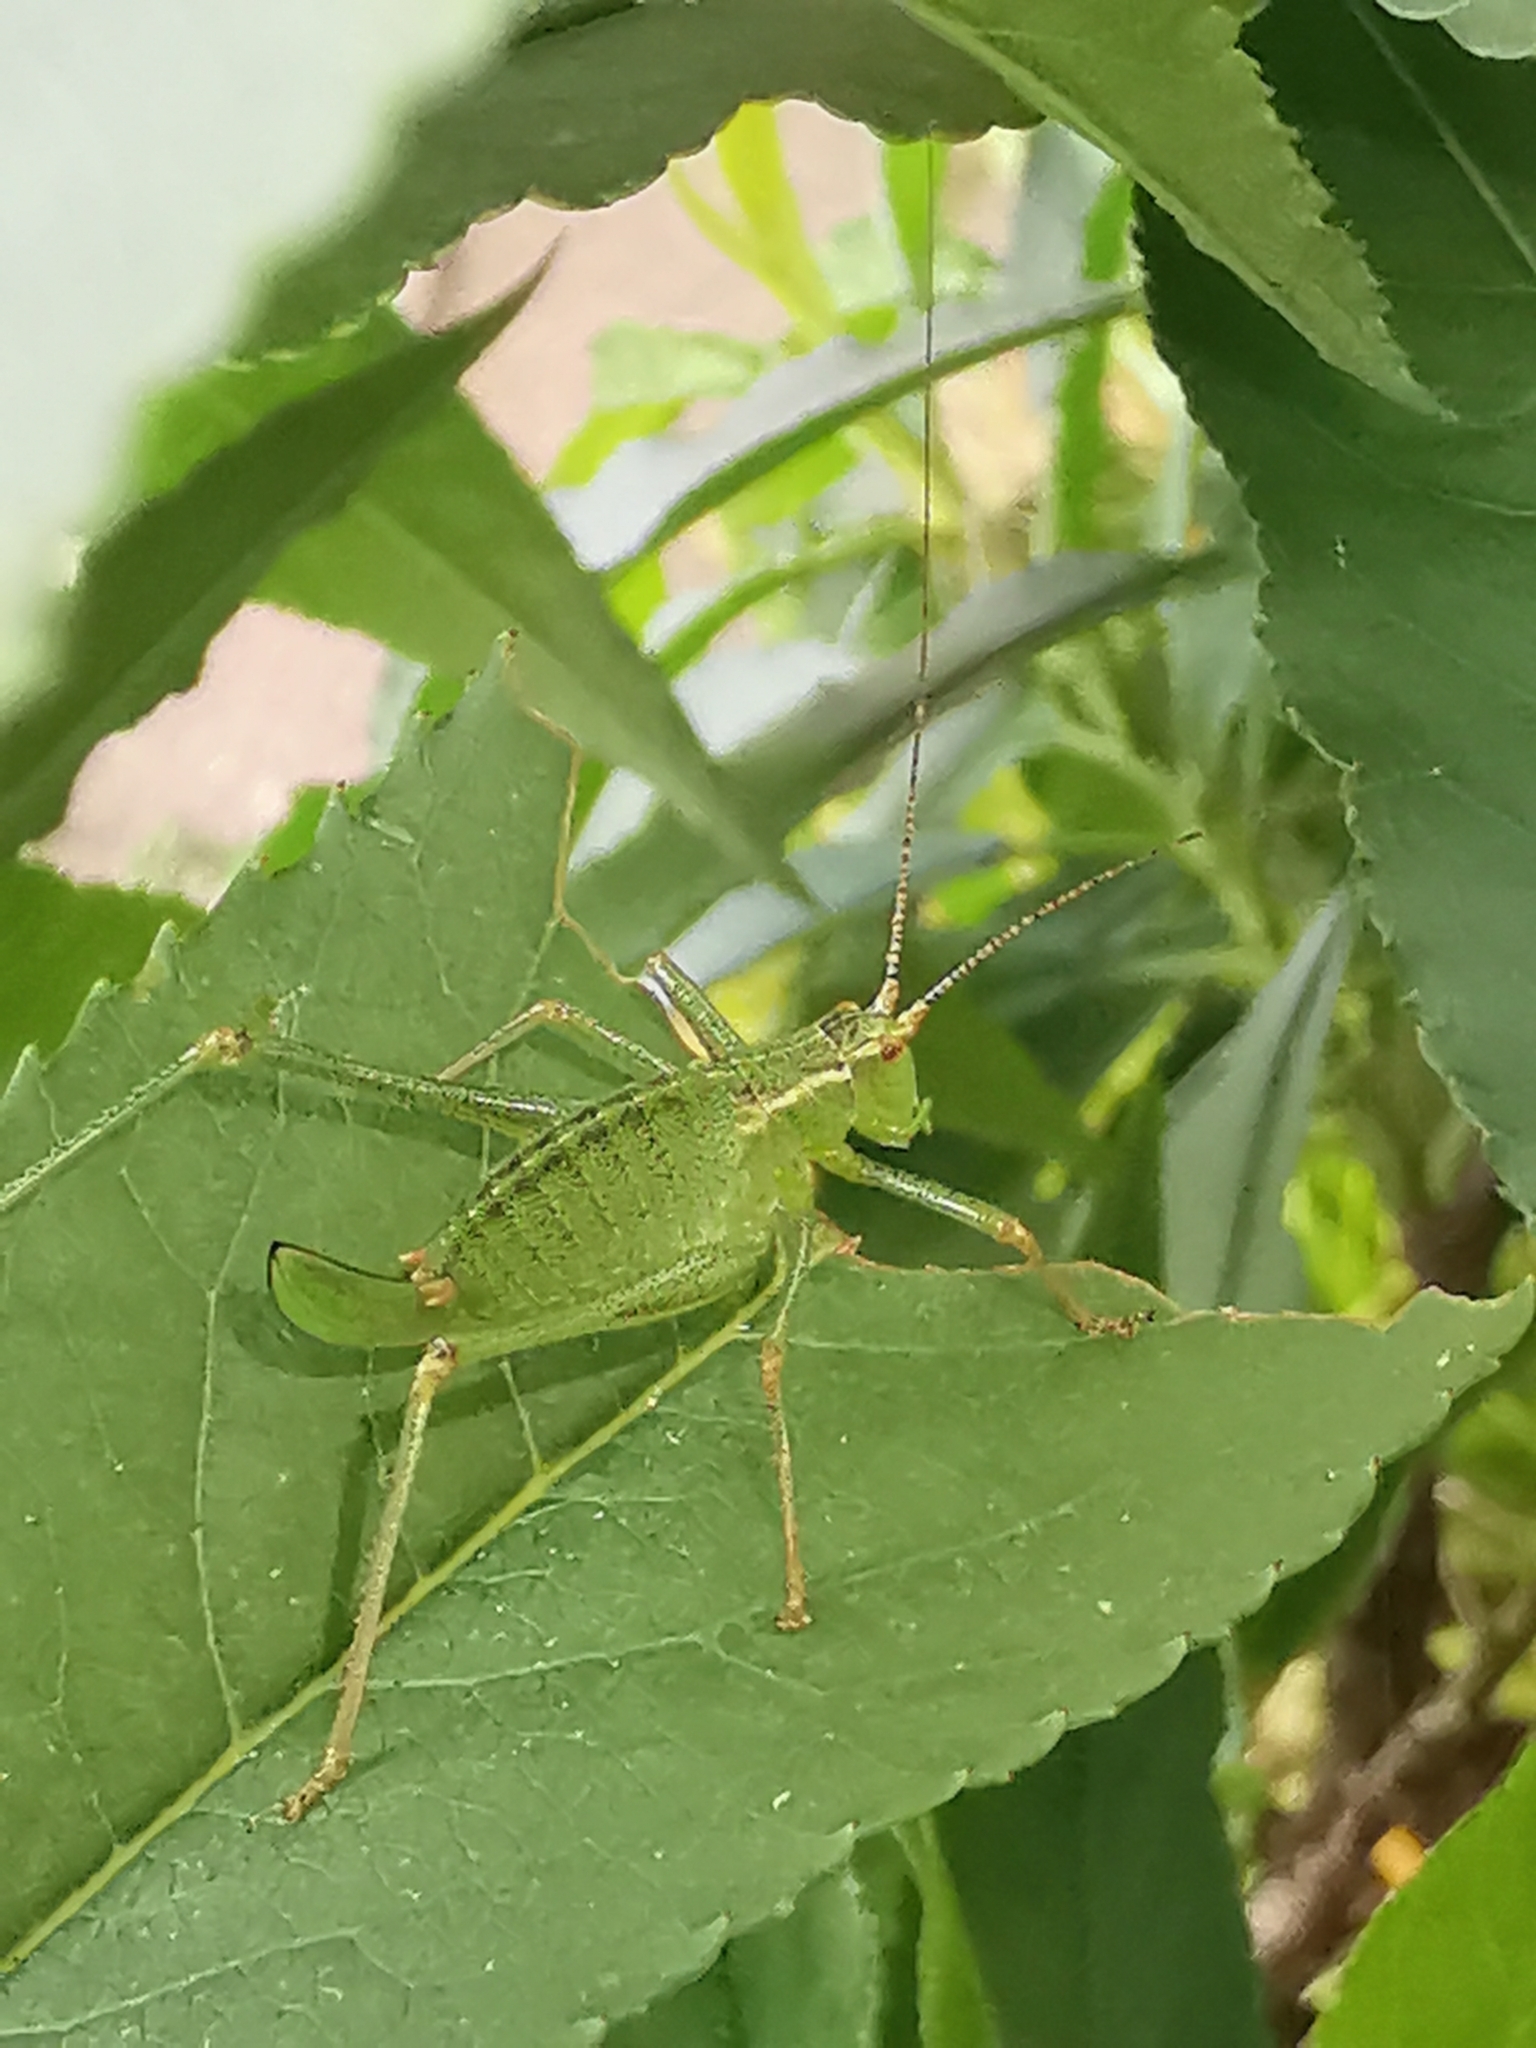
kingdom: Animalia
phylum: Arthropoda
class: Insecta
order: Orthoptera
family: Tettigoniidae
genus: Leptophyes
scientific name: Leptophyes punctatissima
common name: Speckled bush-cricket
